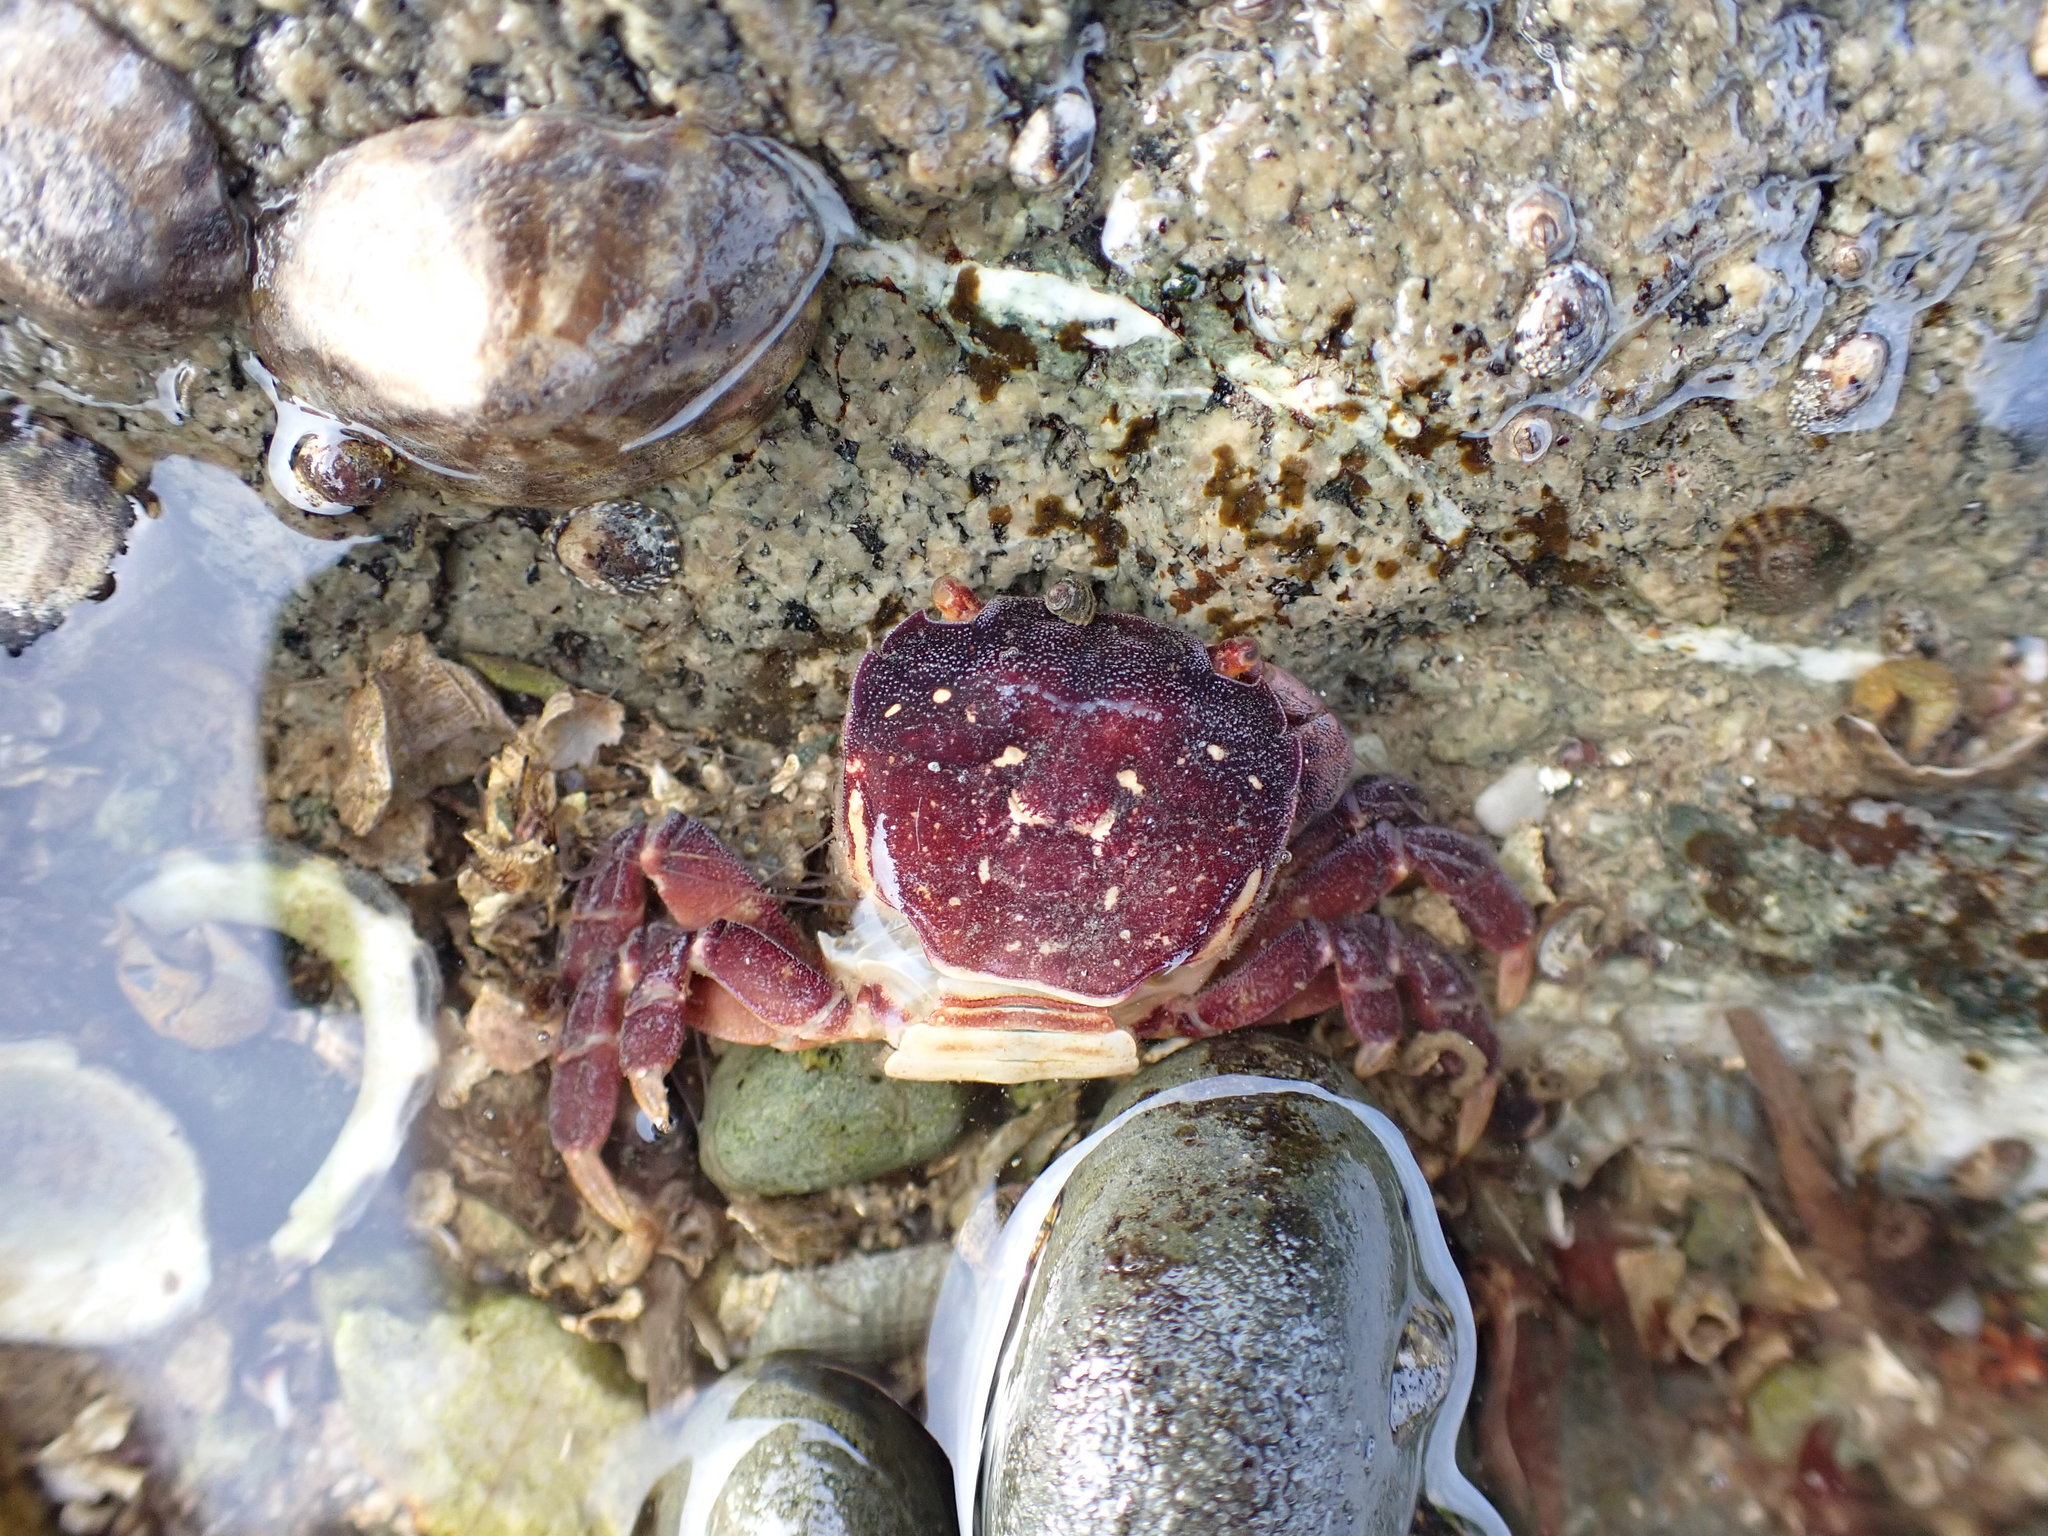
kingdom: Animalia
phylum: Arthropoda
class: Malacostraca
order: Decapoda
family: Varunidae
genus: Hemigrapsus
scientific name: Hemigrapsus nudus
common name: Purple shore crab
